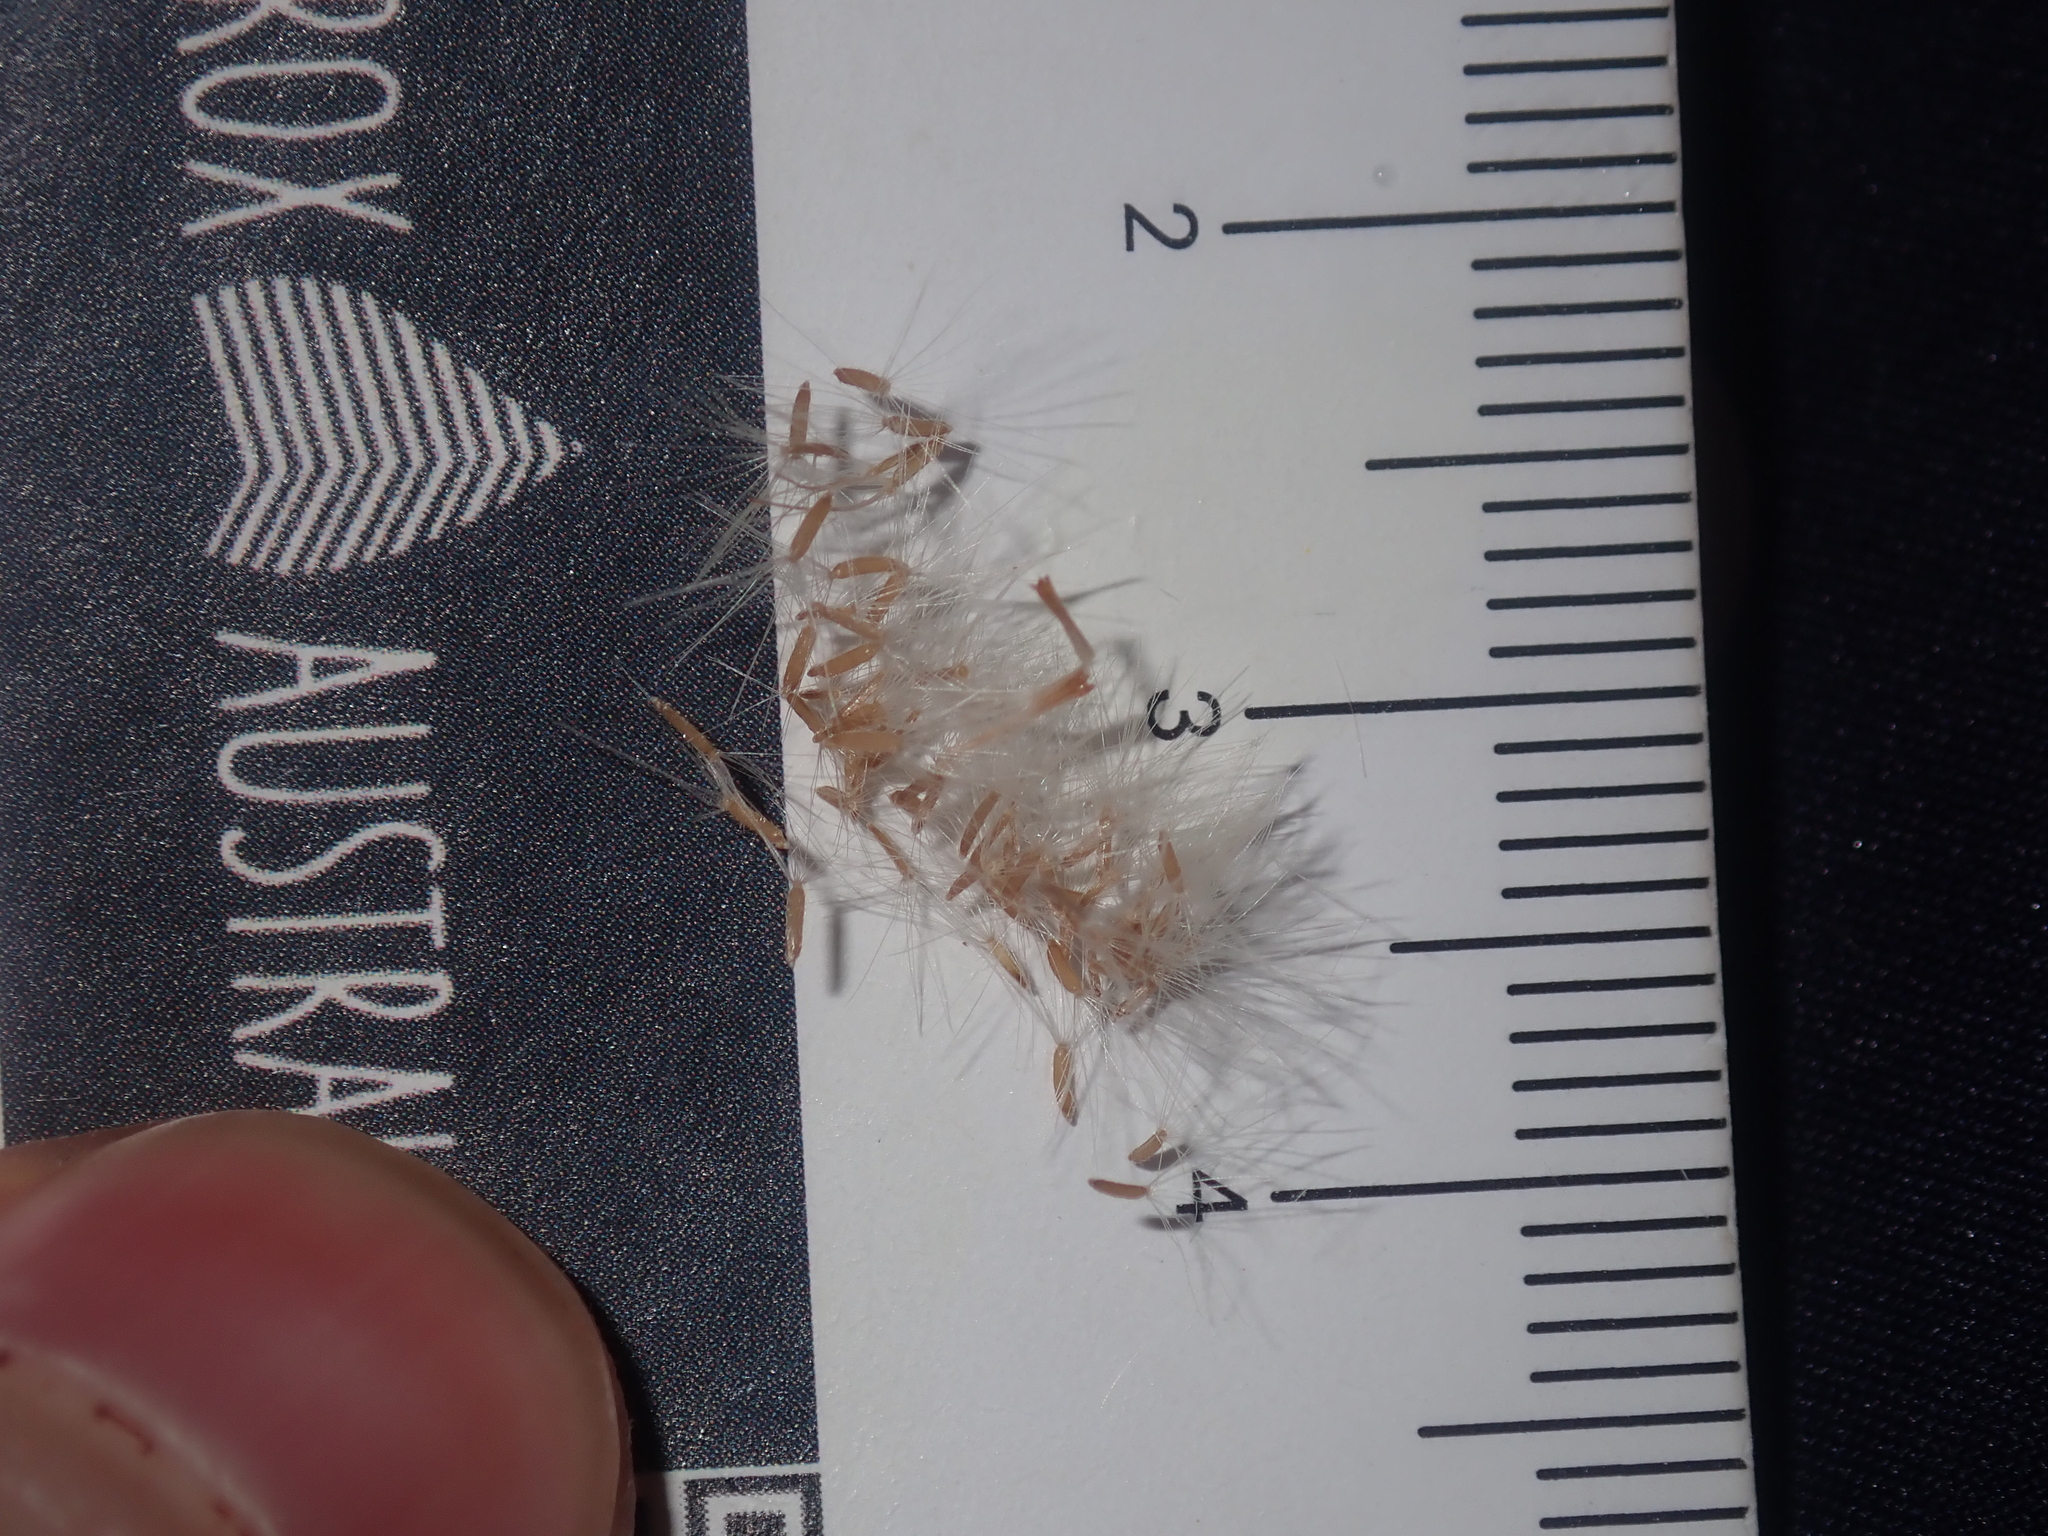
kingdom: Plantae
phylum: Tracheophyta
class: Magnoliopsida
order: Asterales
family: Asteraceae
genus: Erigeron
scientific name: Erigeron bonariensis
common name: Argentine fleabane
